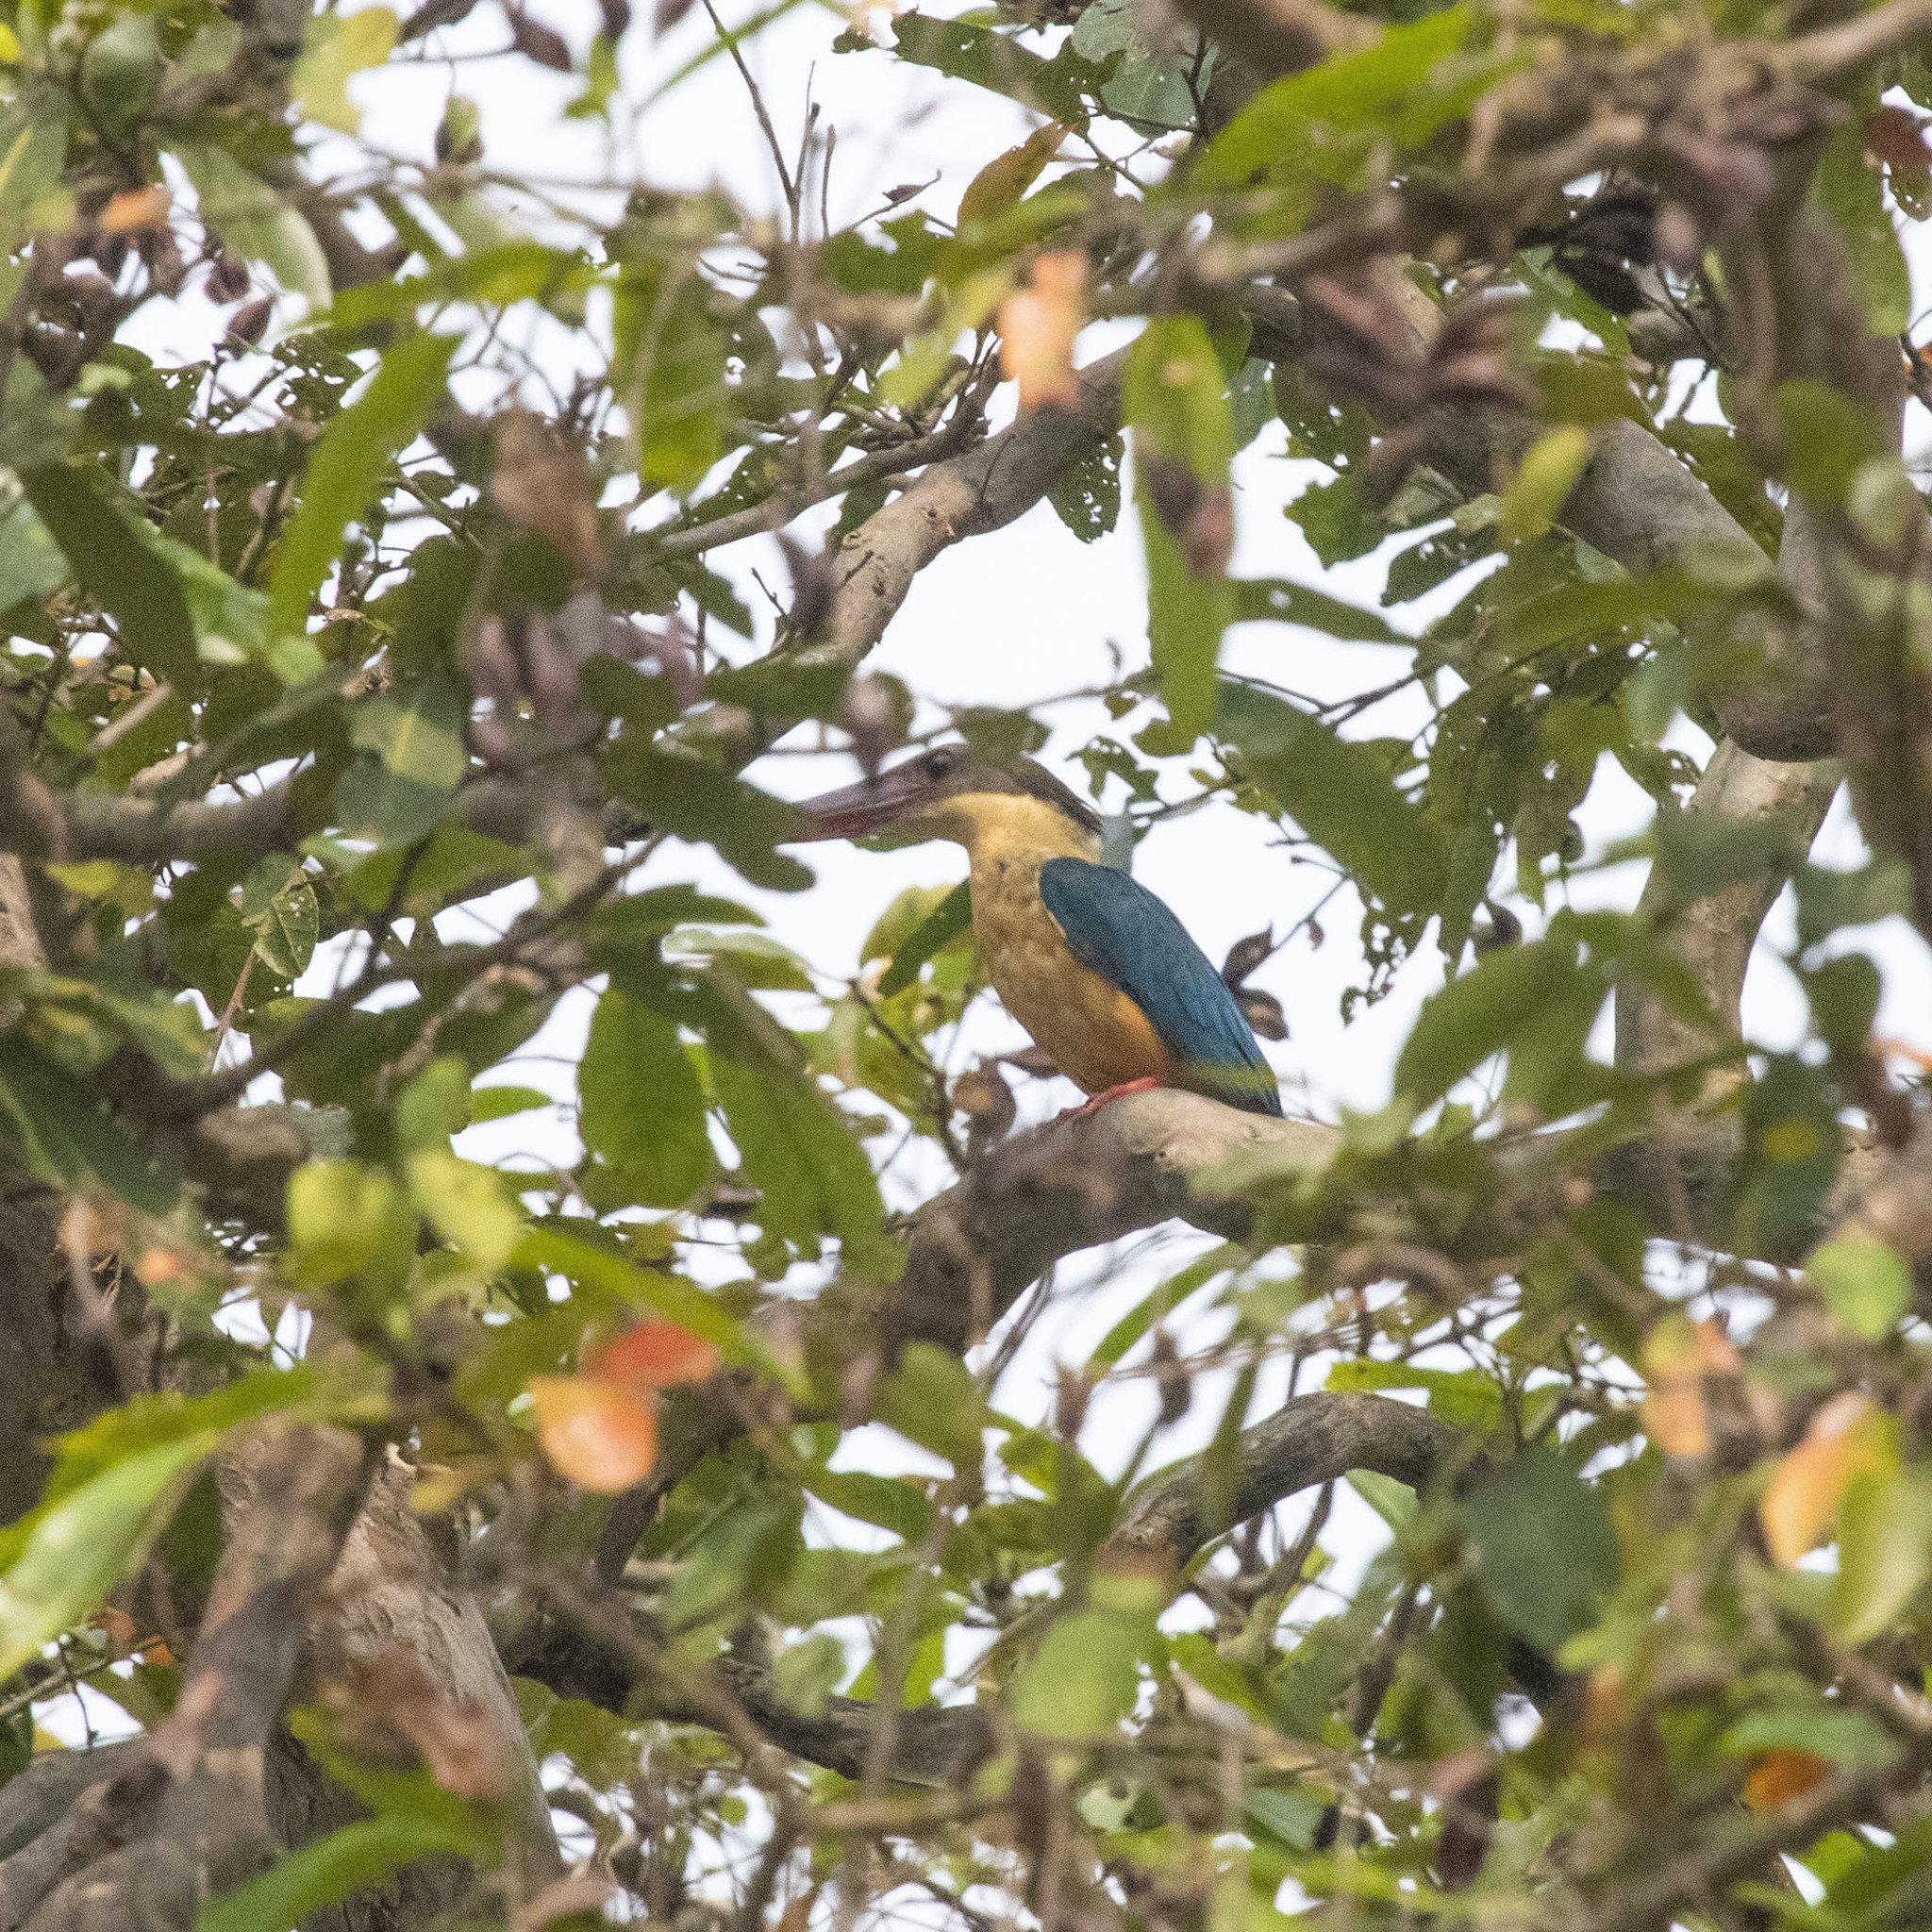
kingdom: Animalia
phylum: Chordata
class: Aves
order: Coraciiformes
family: Alcedinidae
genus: Pelargopsis
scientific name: Pelargopsis capensis
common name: Stork-billed kingfisher
